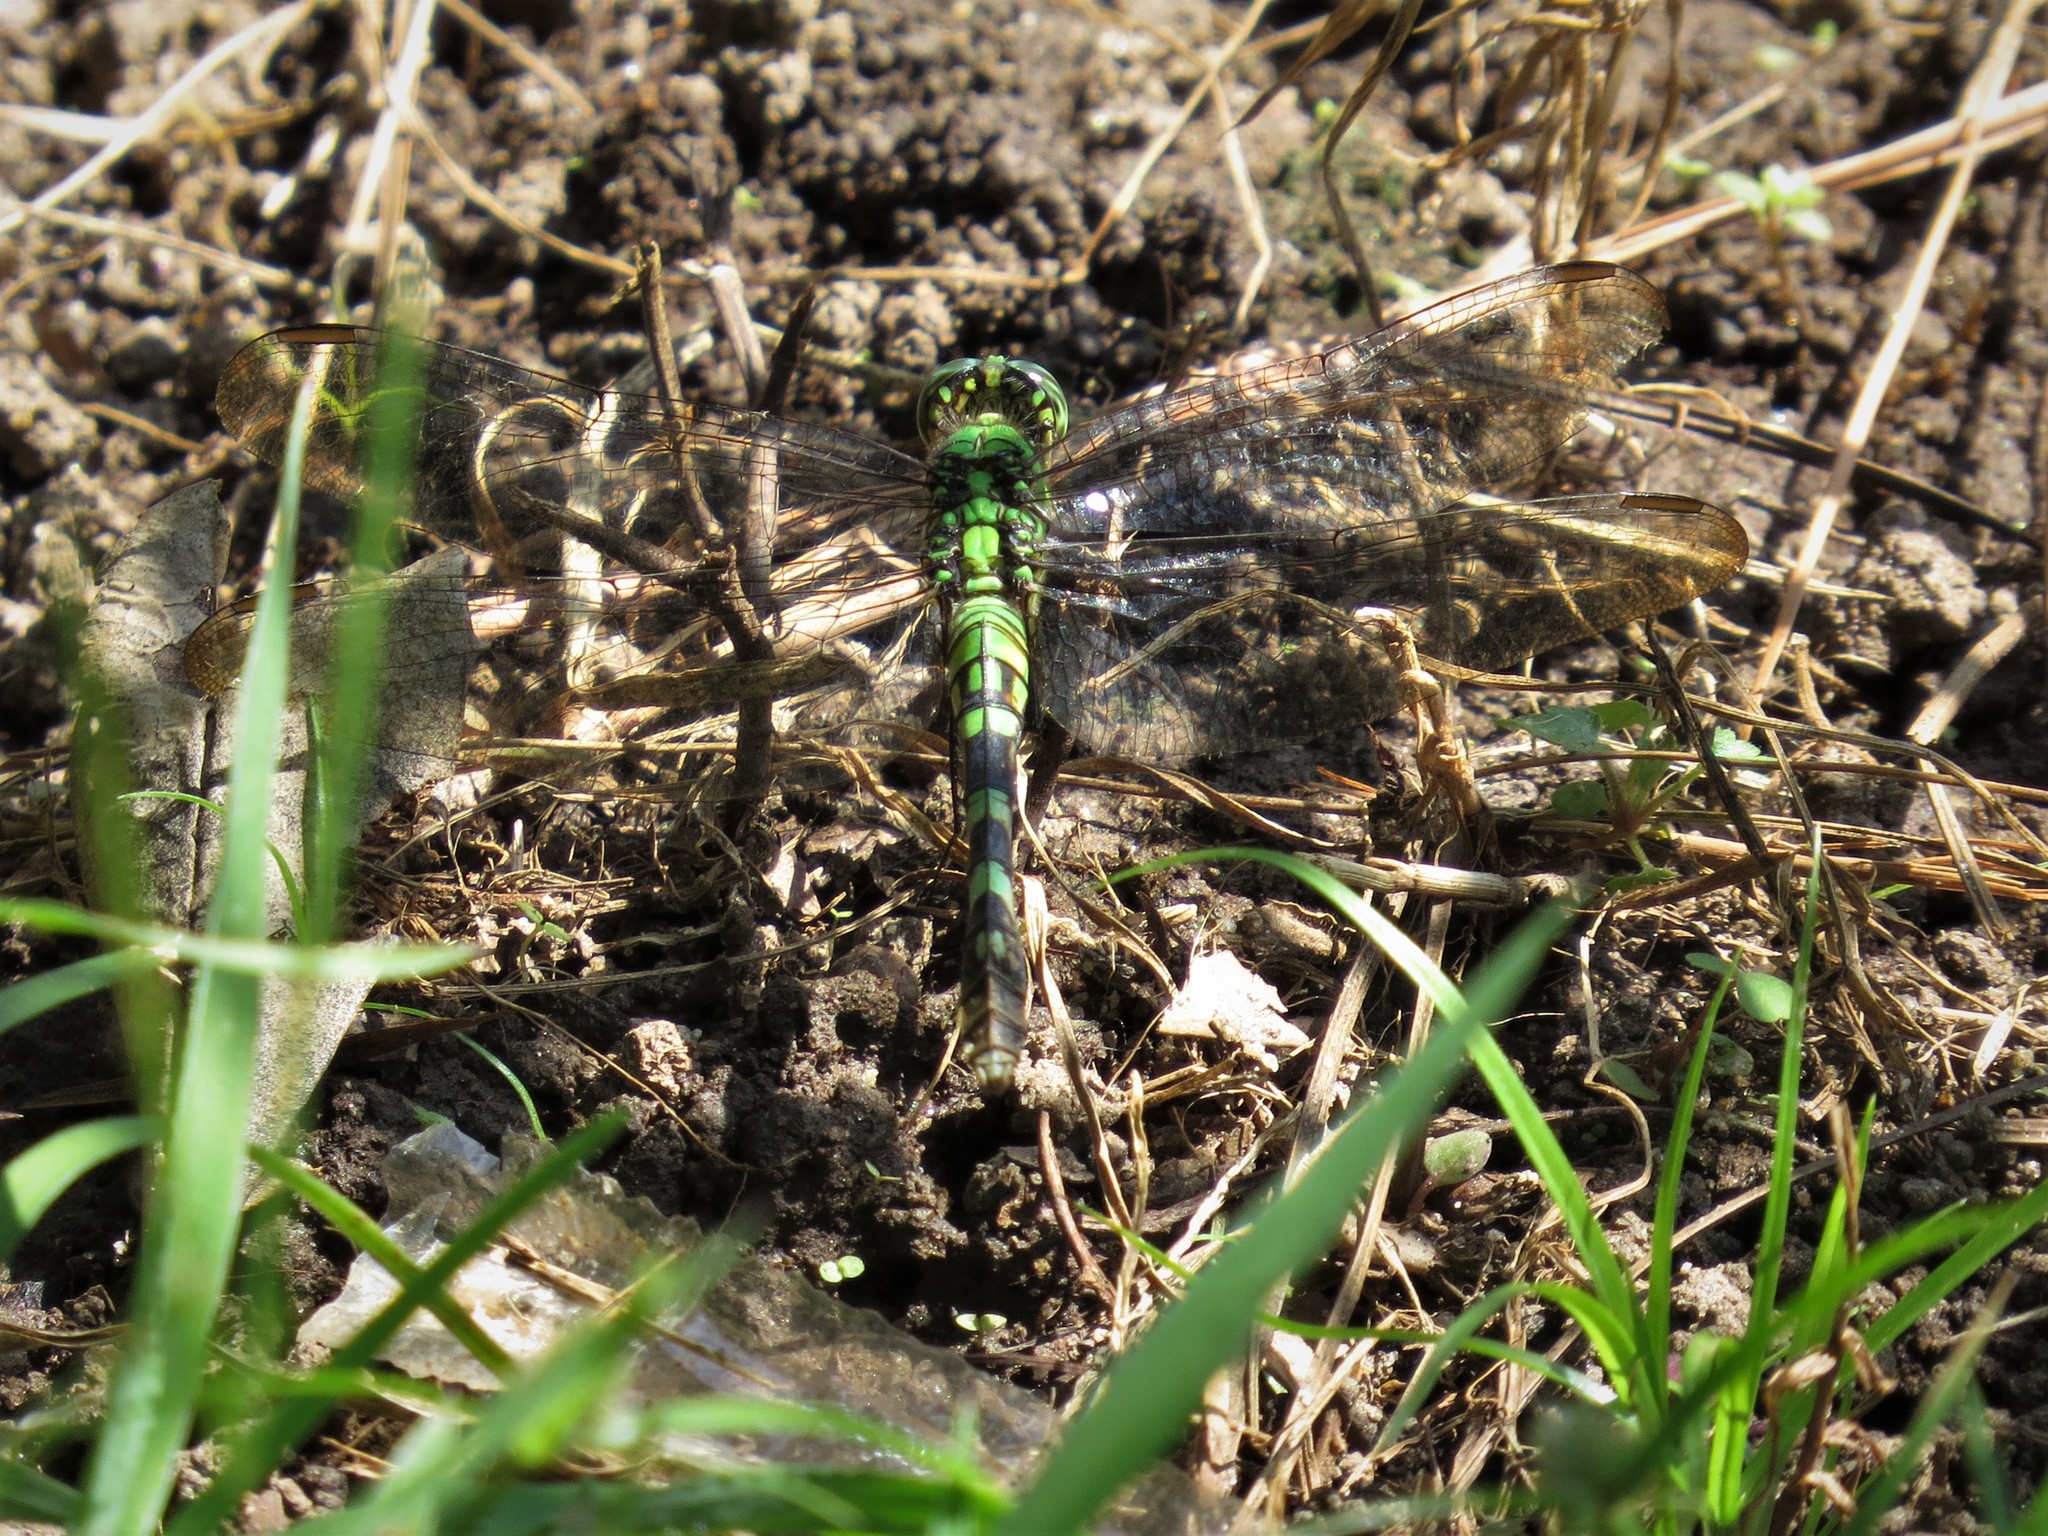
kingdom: Animalia
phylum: Arthropoda
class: Insecta
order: Odonata
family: Libellulidae
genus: Erythemis
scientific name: Erythemis simplicicollis
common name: Eastern pondhawk
